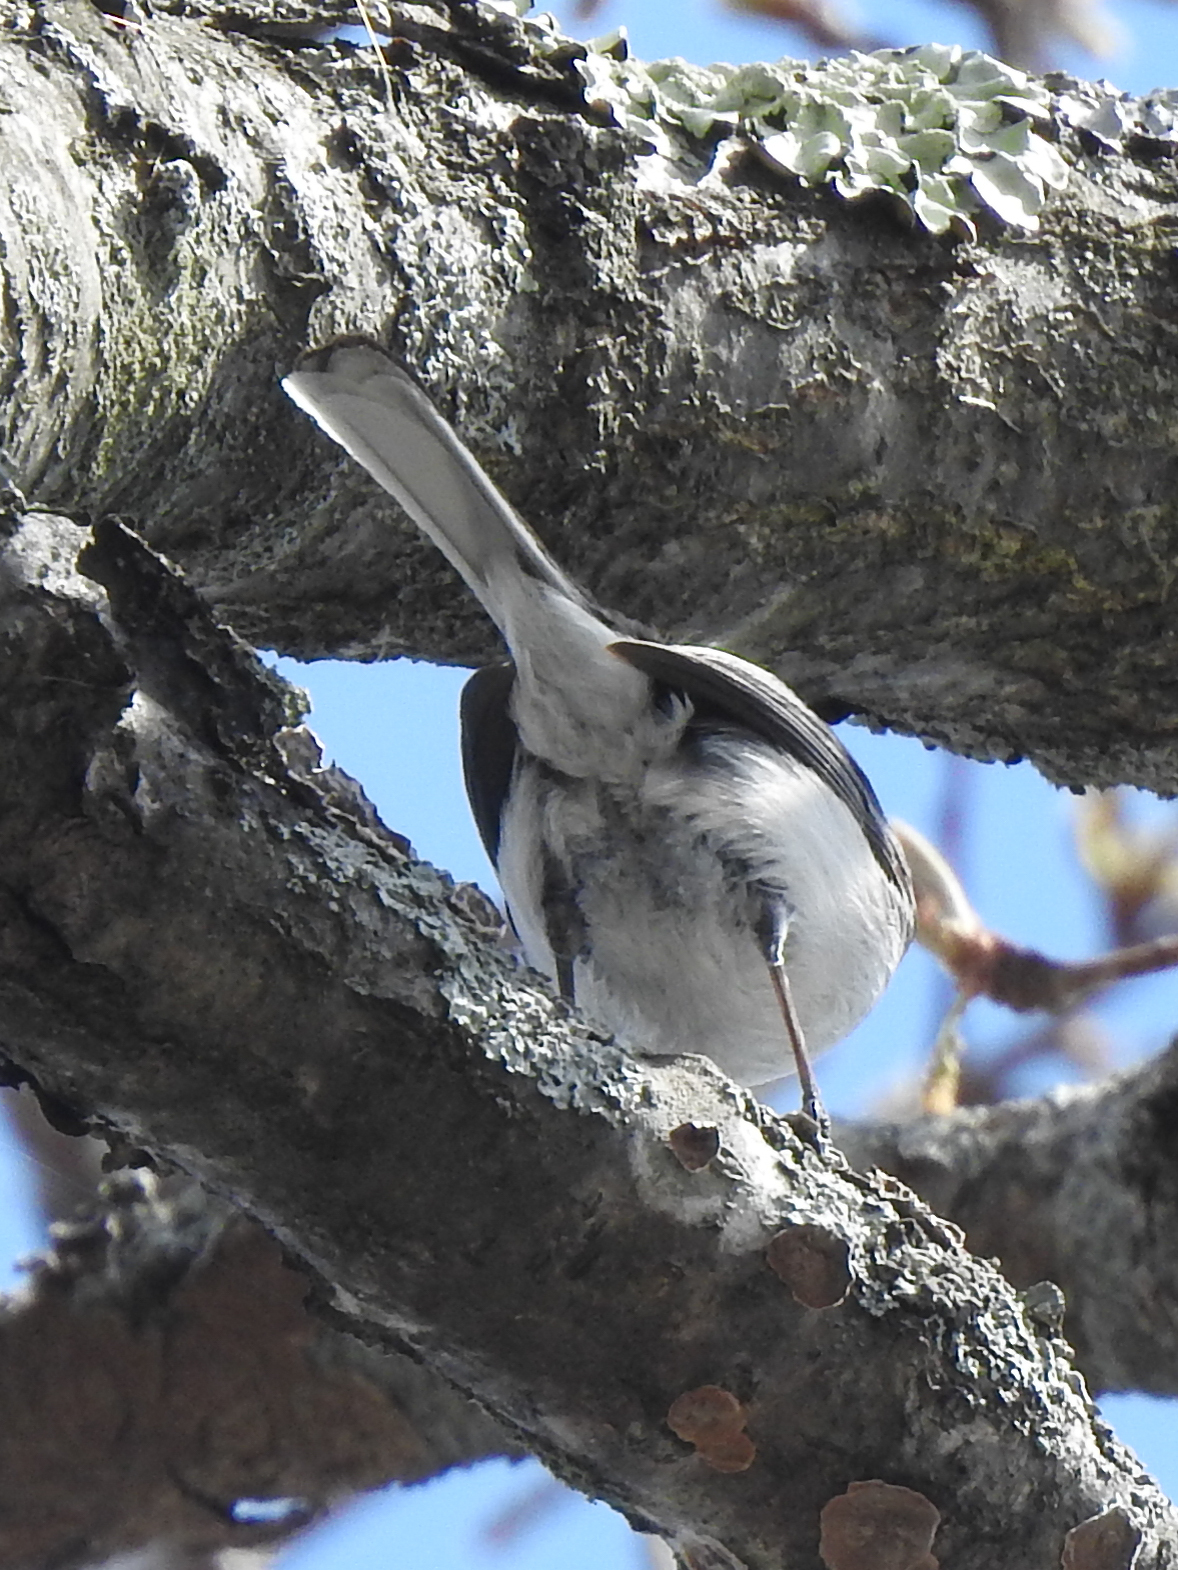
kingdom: Animalia
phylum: Chordata
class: Aves
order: Passeriformes
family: Polioptilidae
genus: Polioptila
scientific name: Polioptila caerulea
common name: Blue-gray gnatcatcher
